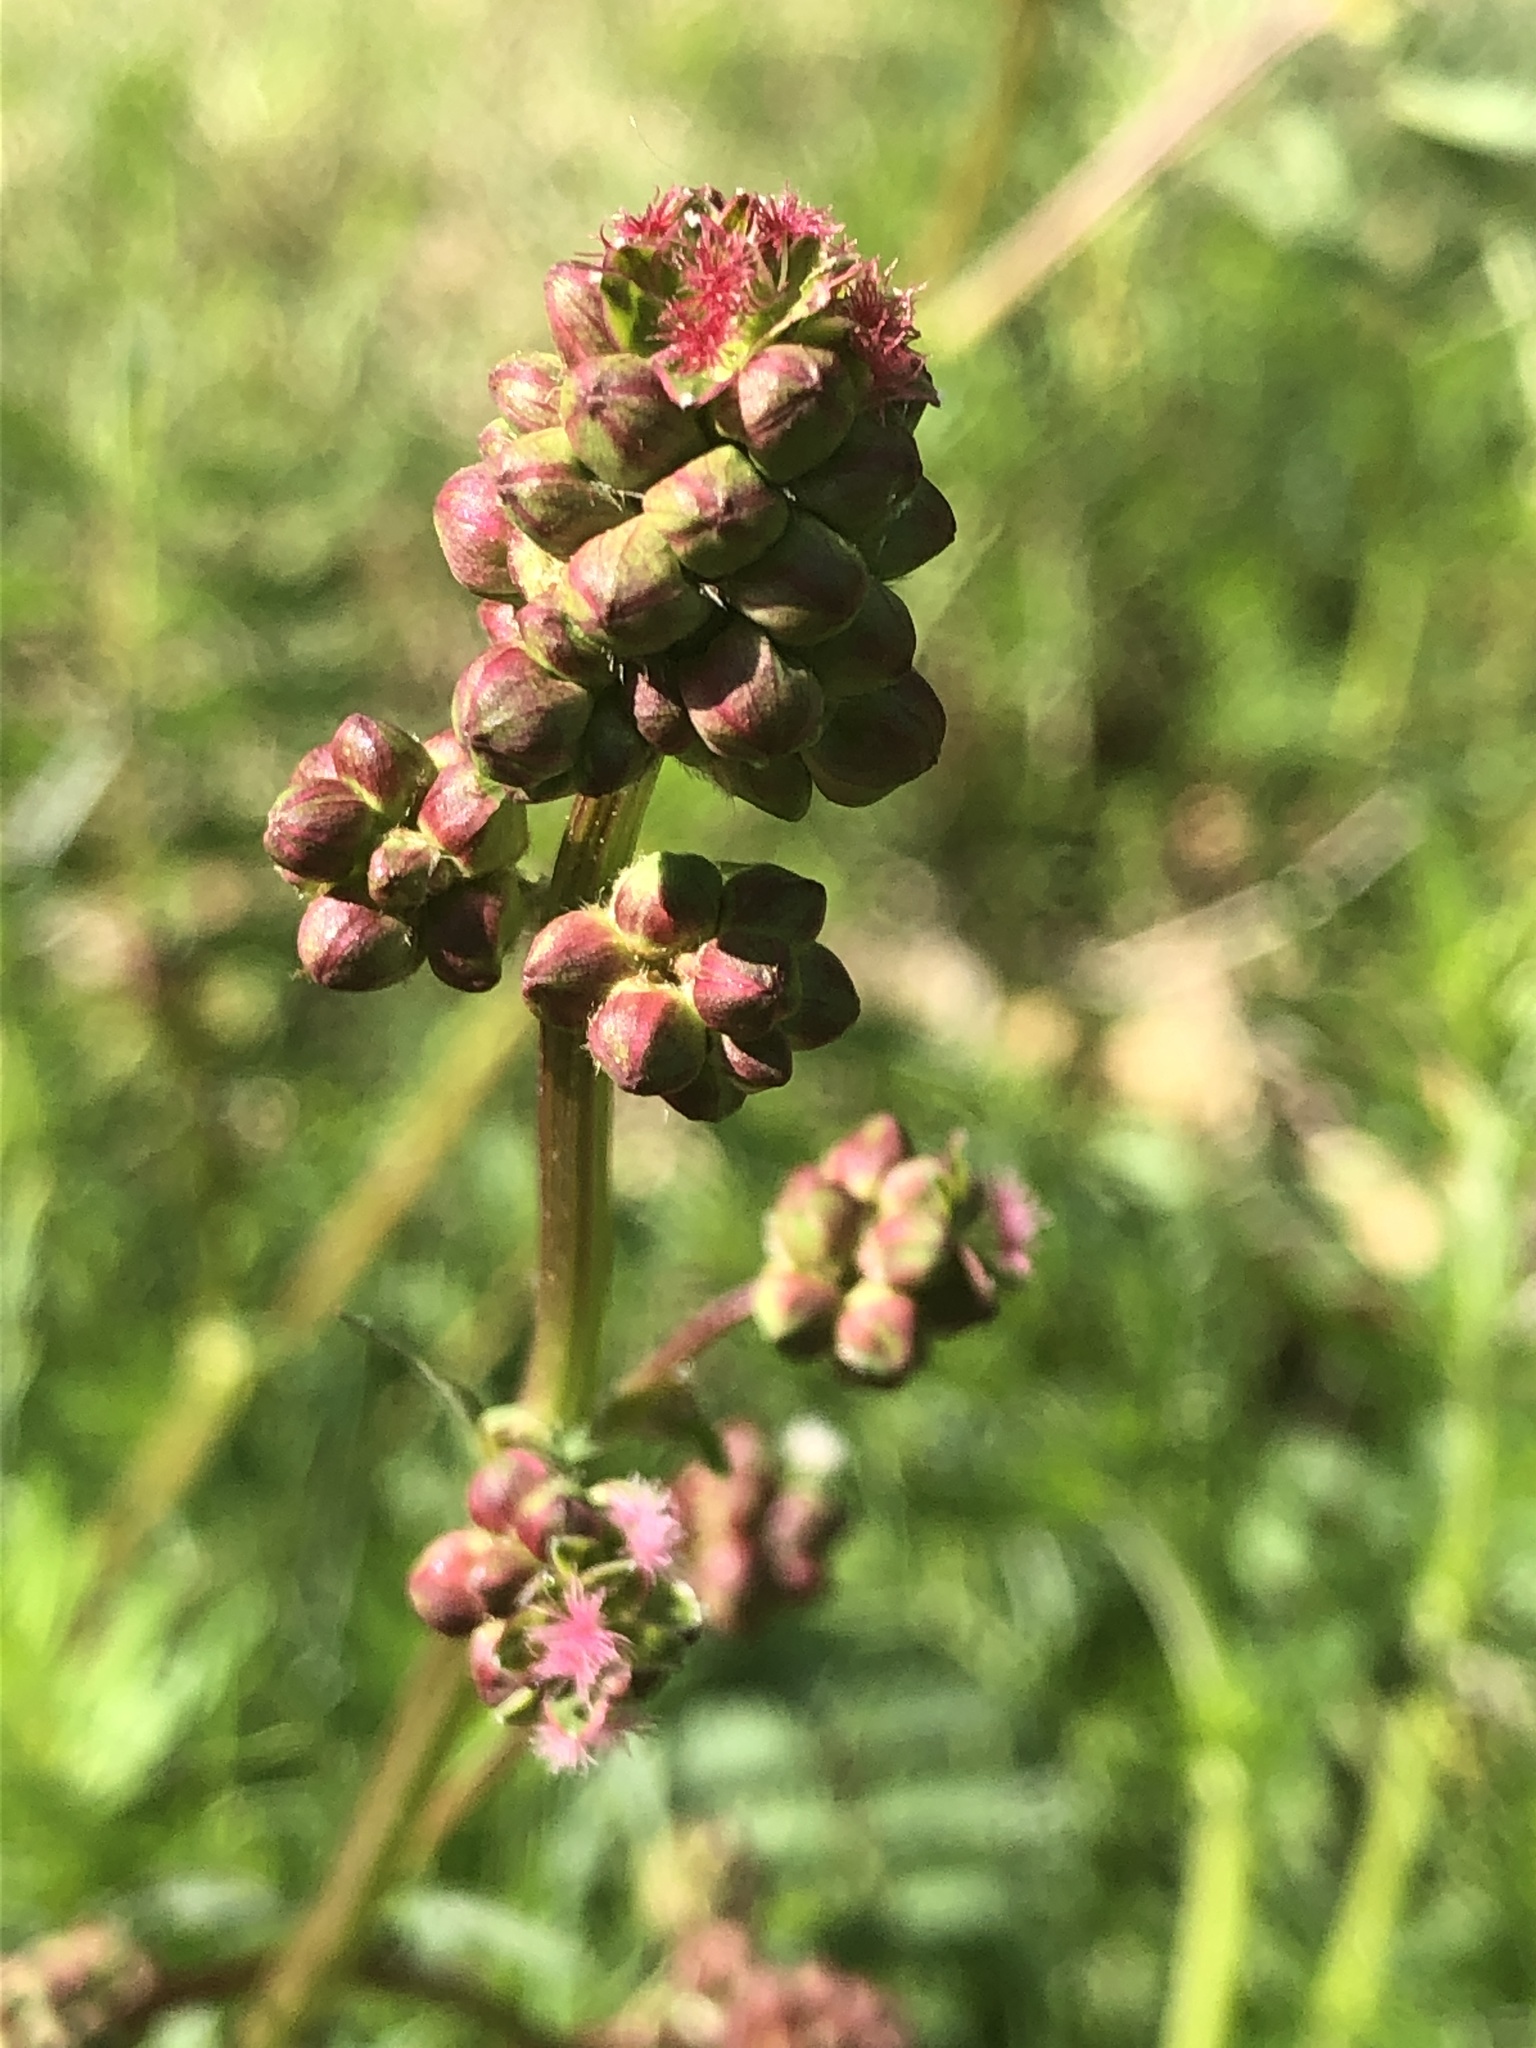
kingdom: Plantae
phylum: Tracheophyta
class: Magnoliopsida
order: Rosales
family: Rosaceae
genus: Poterium
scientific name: Poterium sanguisorba
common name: Salad burnet
